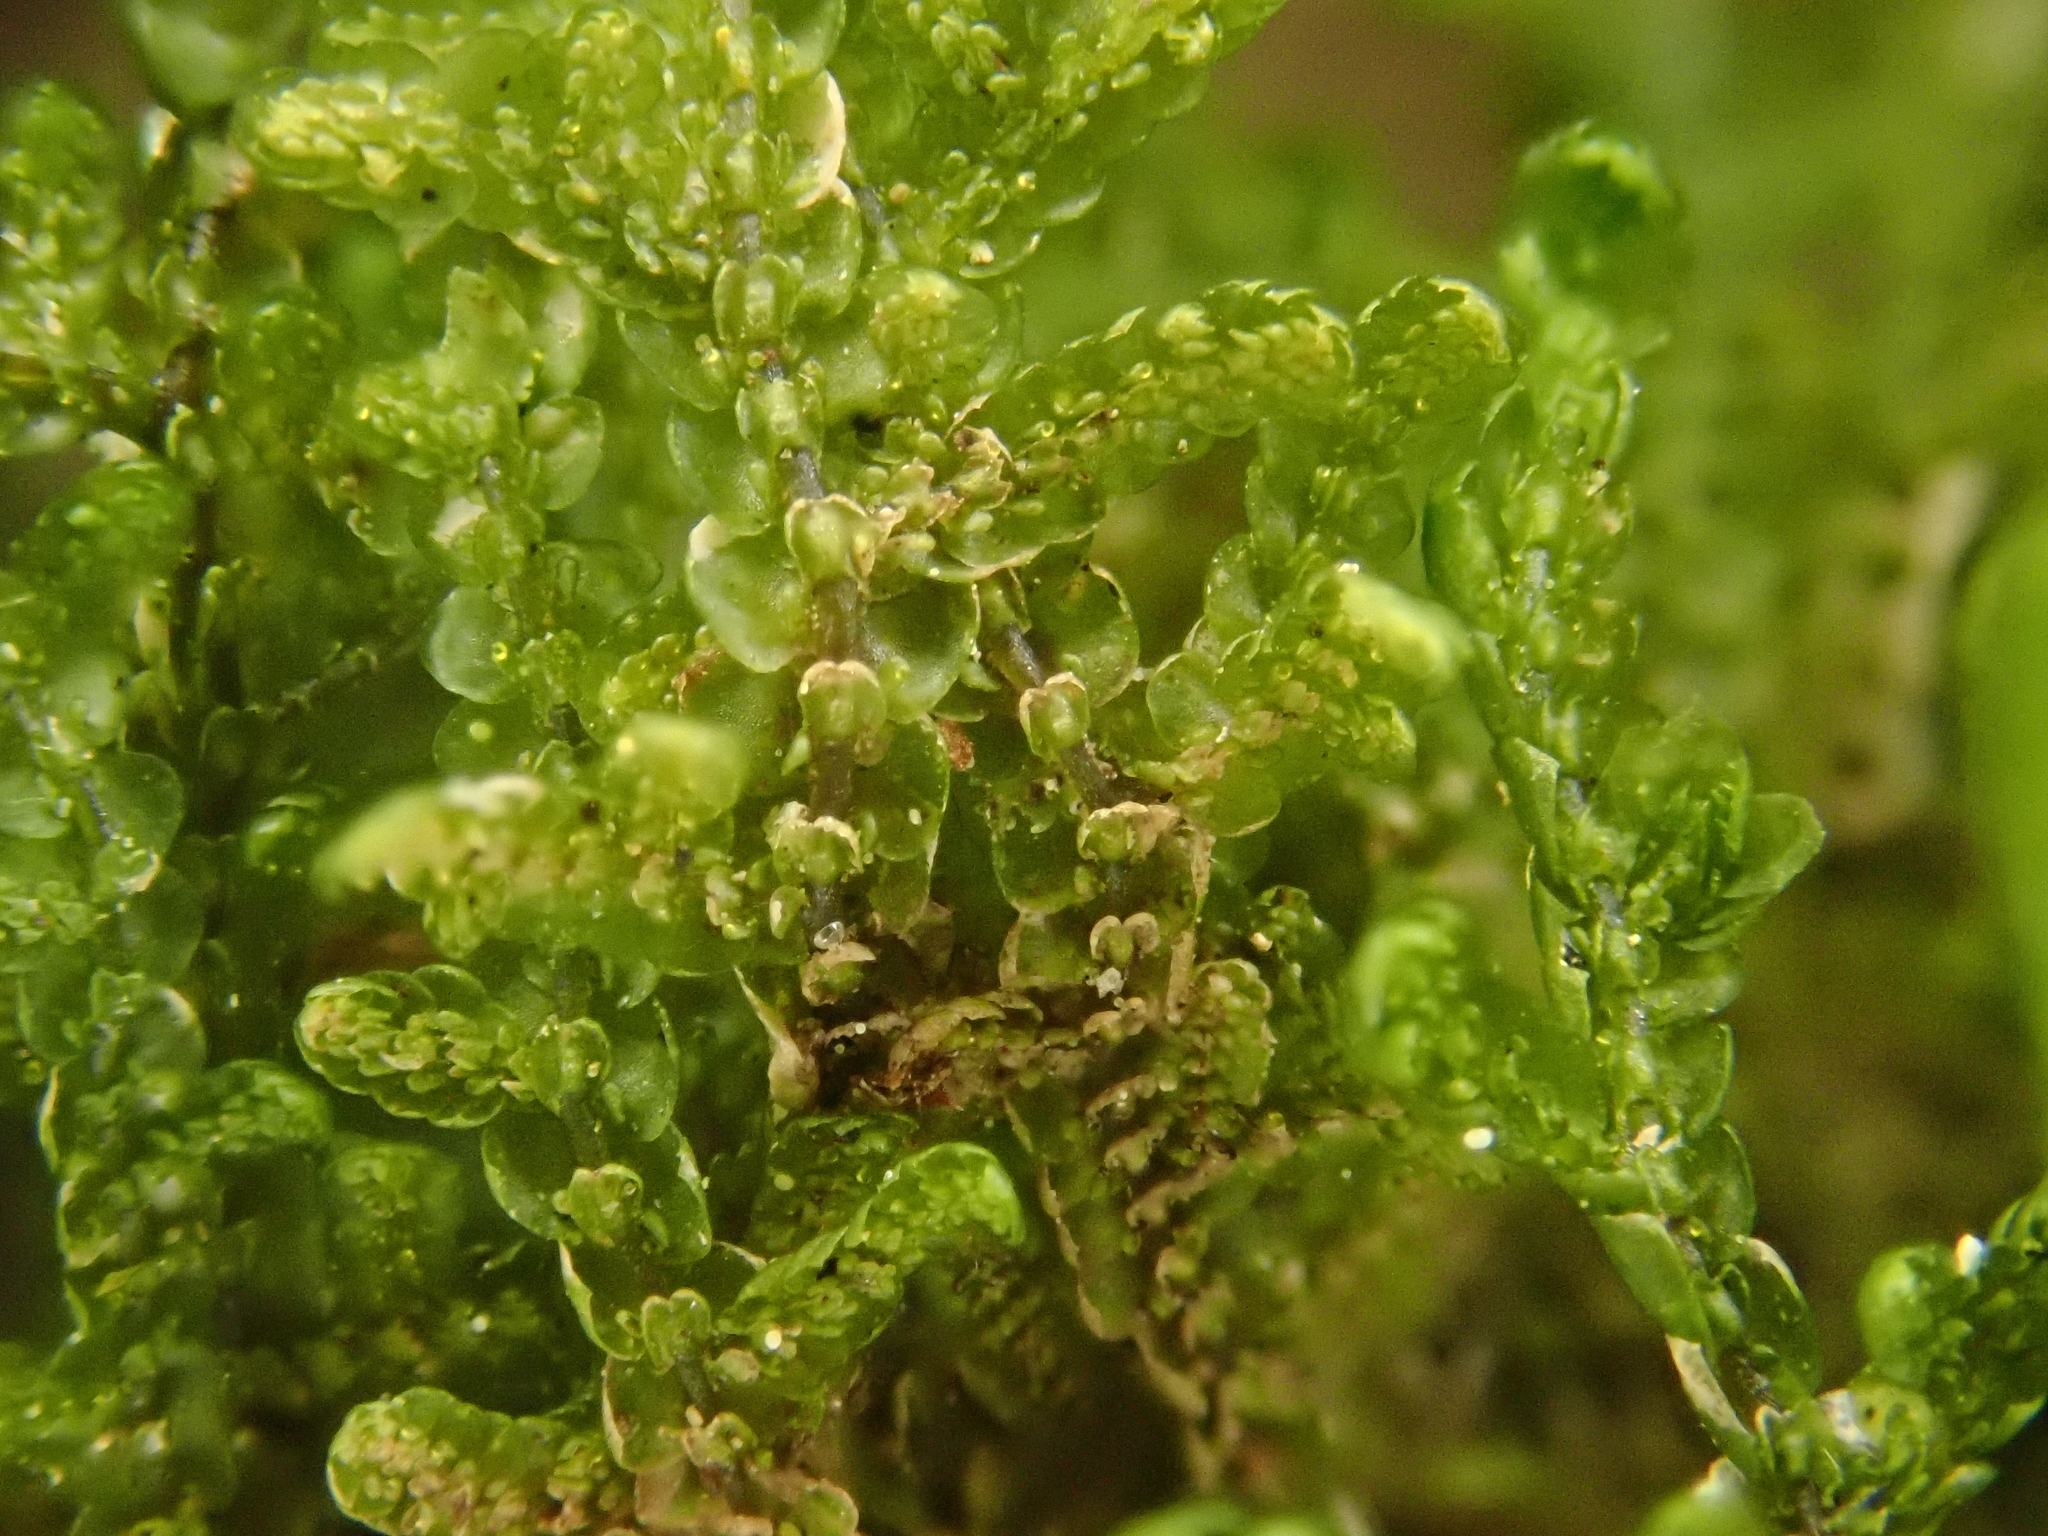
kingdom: Plantae
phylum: Marchantiophyta
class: Jungermanniopsida
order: Porellales
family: Frullaniaceae
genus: Frullania
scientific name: Frullania tamarisci
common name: Tamarisk scalewort
